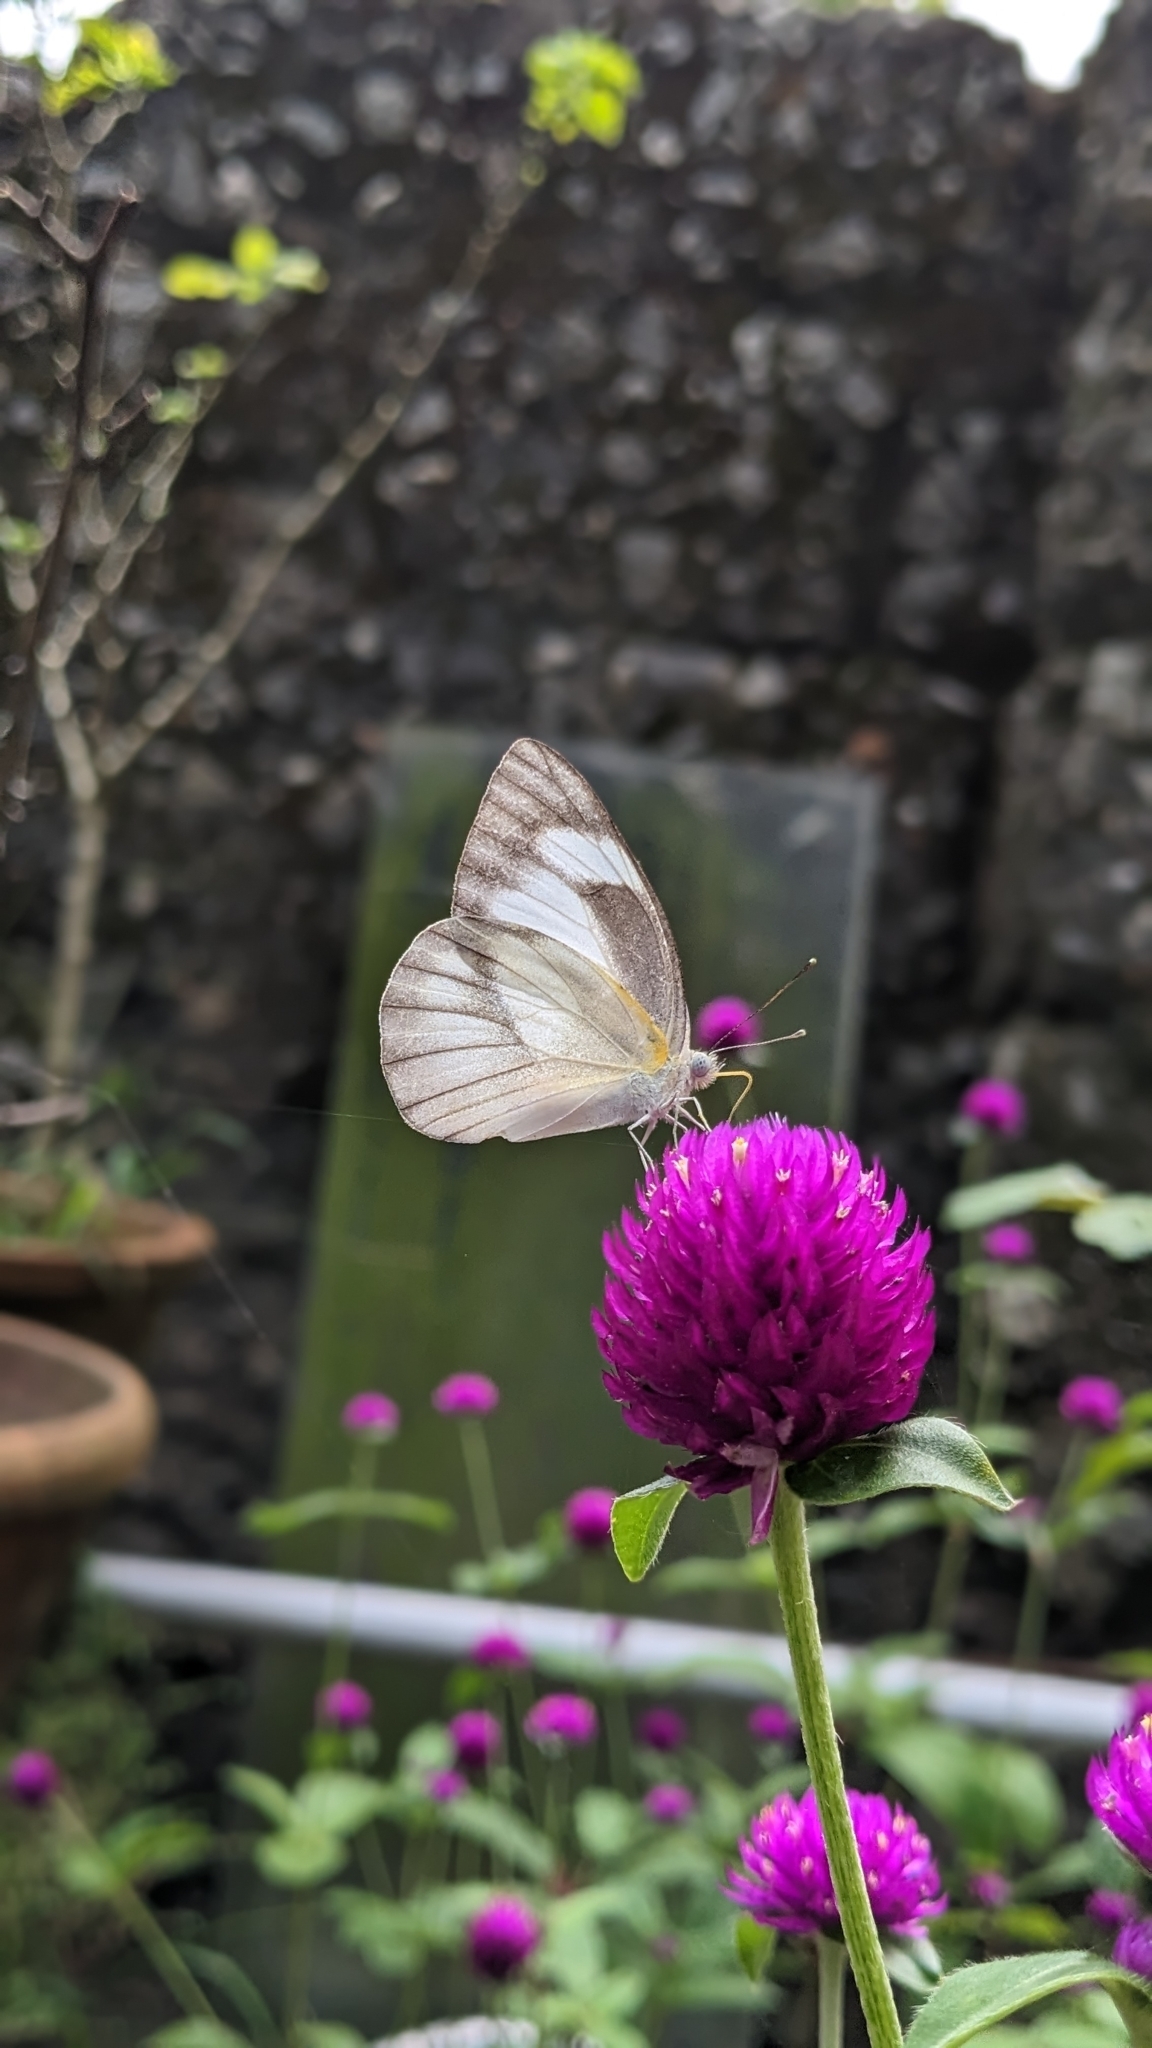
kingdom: Animalia
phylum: Arthropoda
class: Insecta
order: Lepidoptera
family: Pieridae
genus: Appias
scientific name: Appias libythea
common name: Striped albatross
